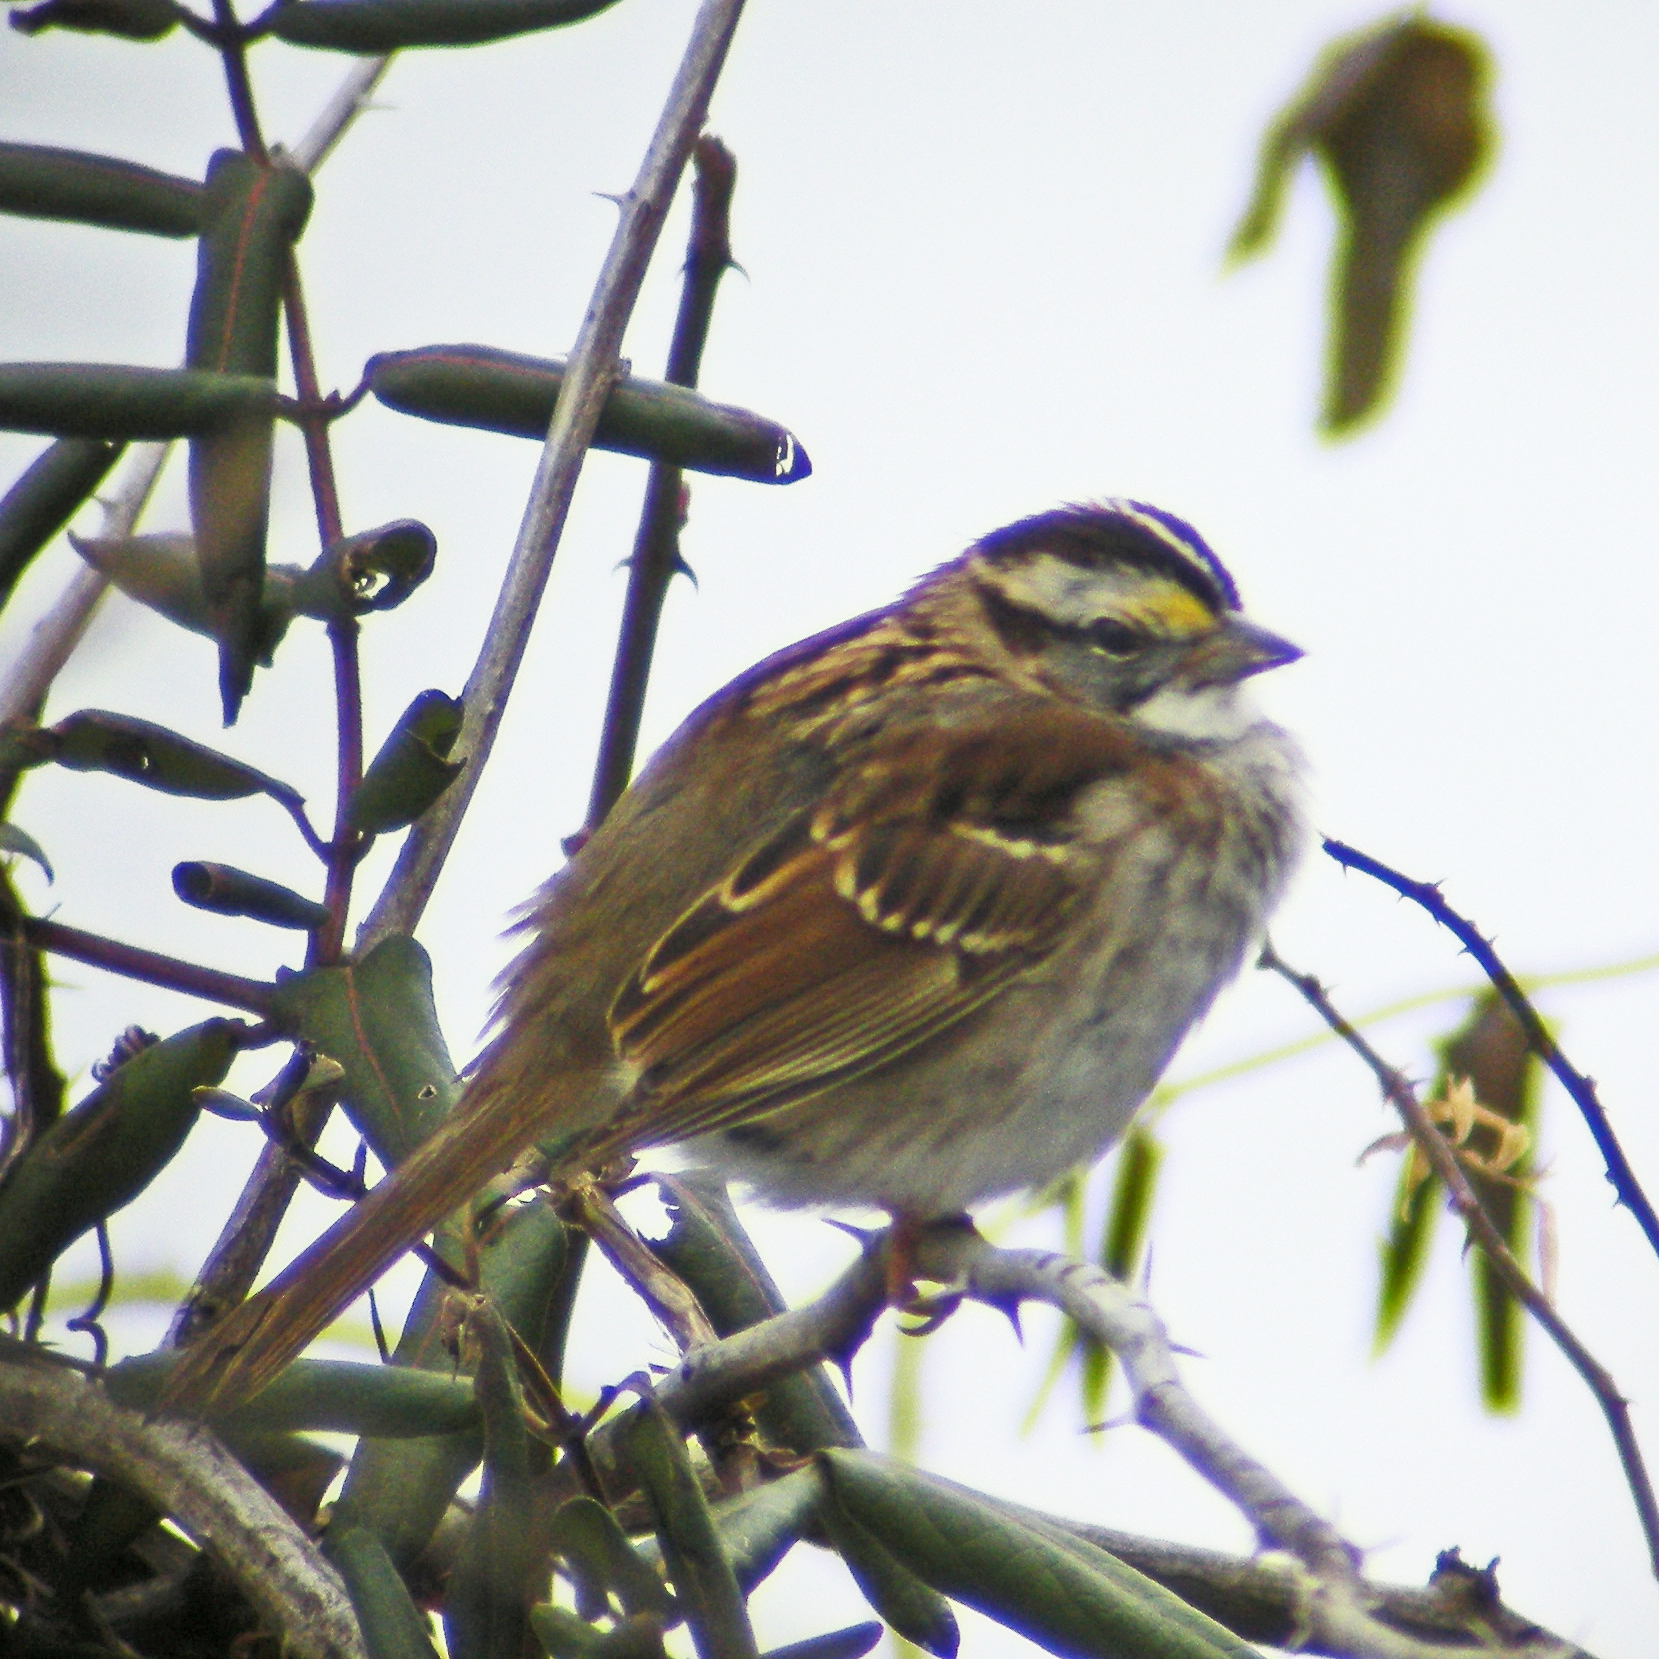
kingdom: Animalia
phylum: Chordata
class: Aves
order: Passeriformes
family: Passerellidae
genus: Zonotrichia
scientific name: Zonotrichia albicollis
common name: White-throated sparrow
